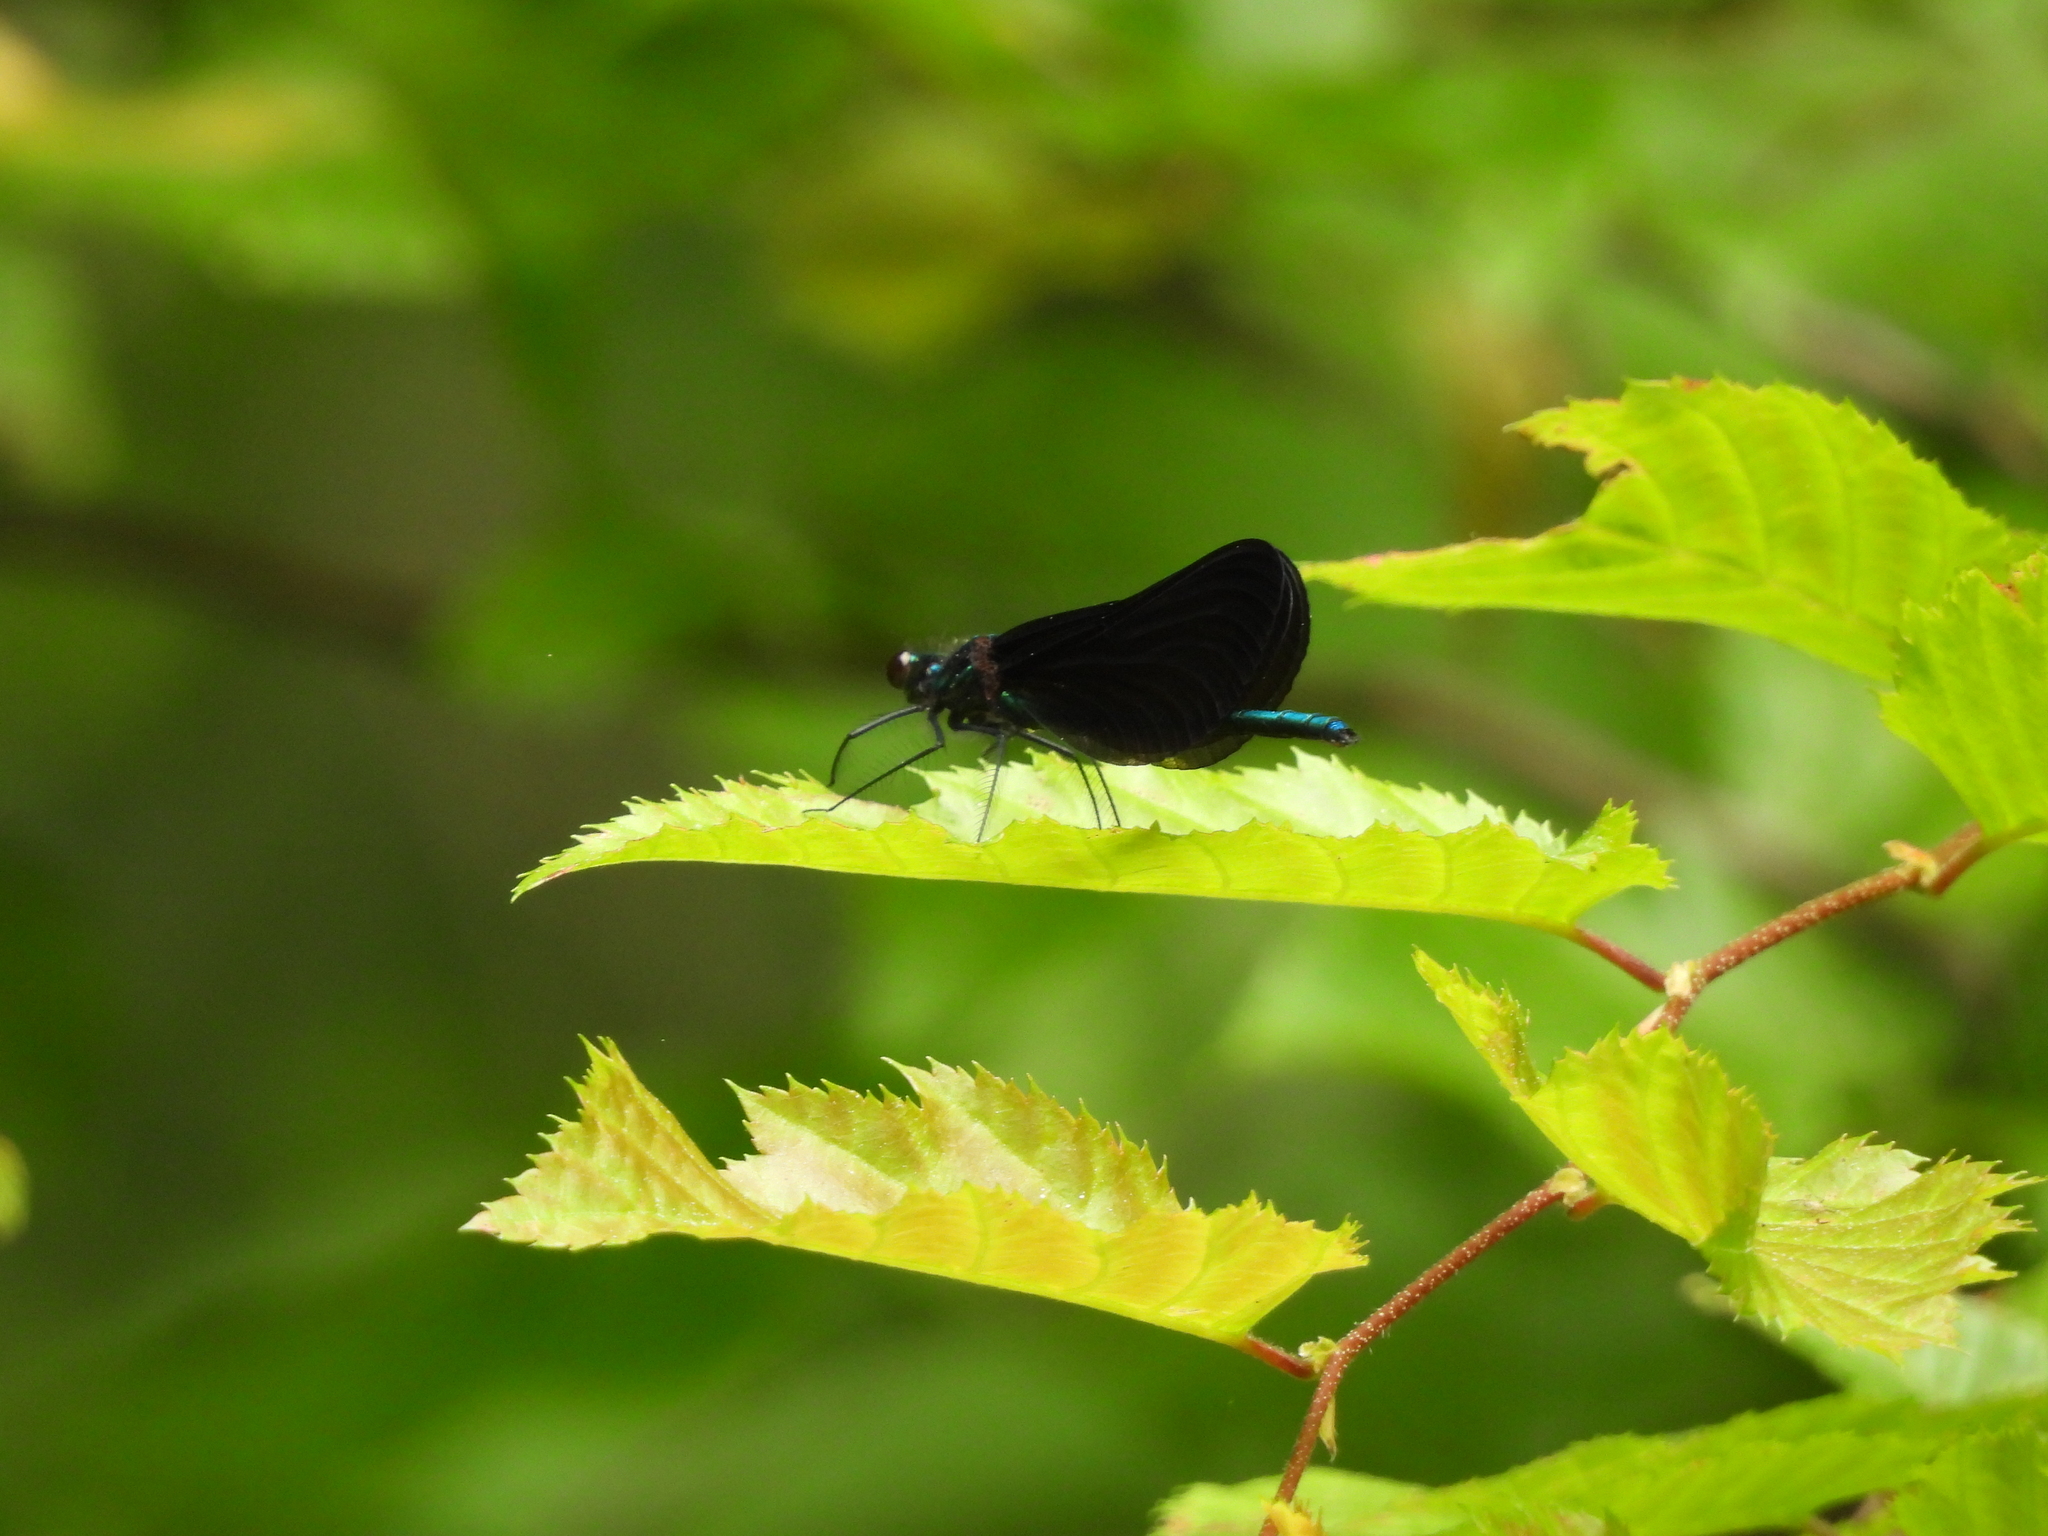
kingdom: Animalia
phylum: Arthropoda
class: Insecta
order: Odonata
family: Calopterygidae
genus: Calopteryx
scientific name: Calopteryx maculata
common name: Ebony jewelwing
